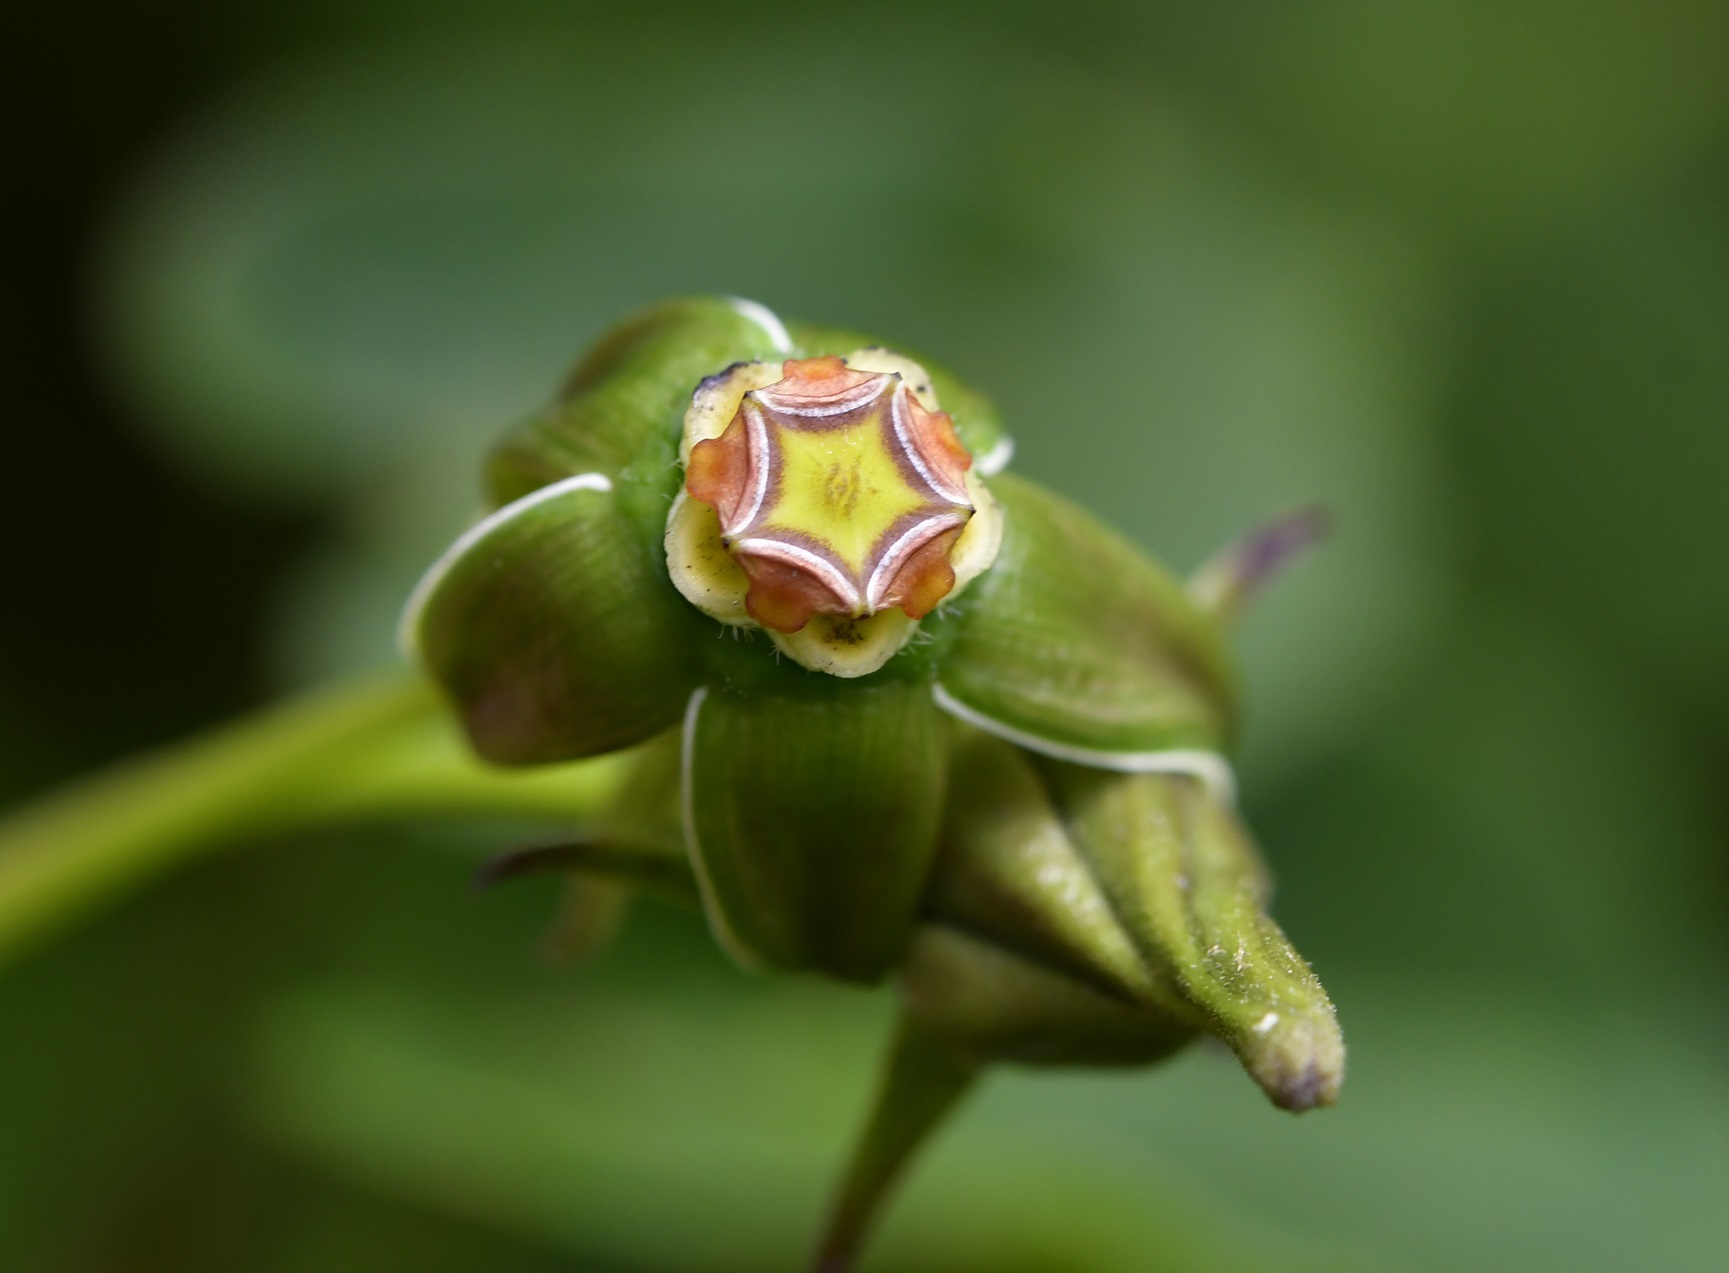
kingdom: Plantae
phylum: Tracheophyta
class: Magnoliopsida
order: Gentianales
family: Apocynaceae
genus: Gonolobus
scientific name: Gonolobus breedlovei
